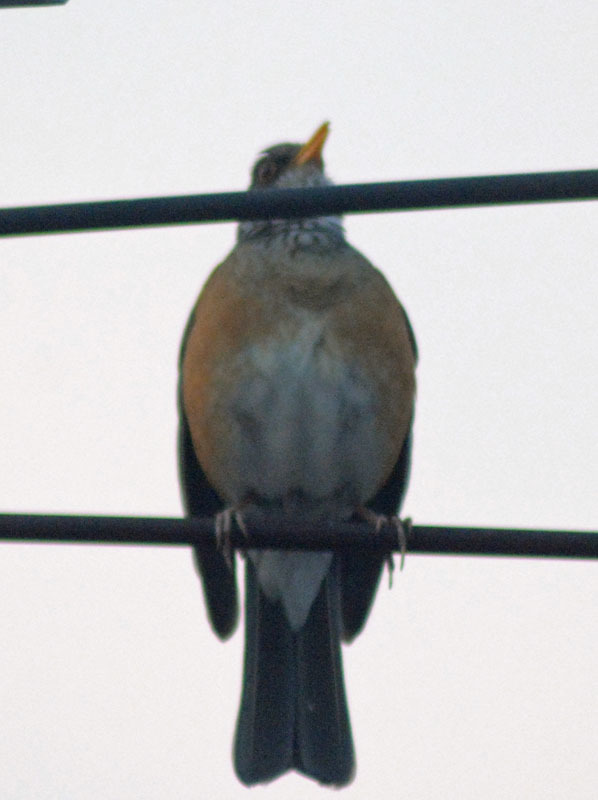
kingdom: Animalia
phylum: Chordata
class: Aves
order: Passeriformes
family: Turdidae
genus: Turdus
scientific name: Turdus rufopalliatus
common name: Rufous-backed robin
